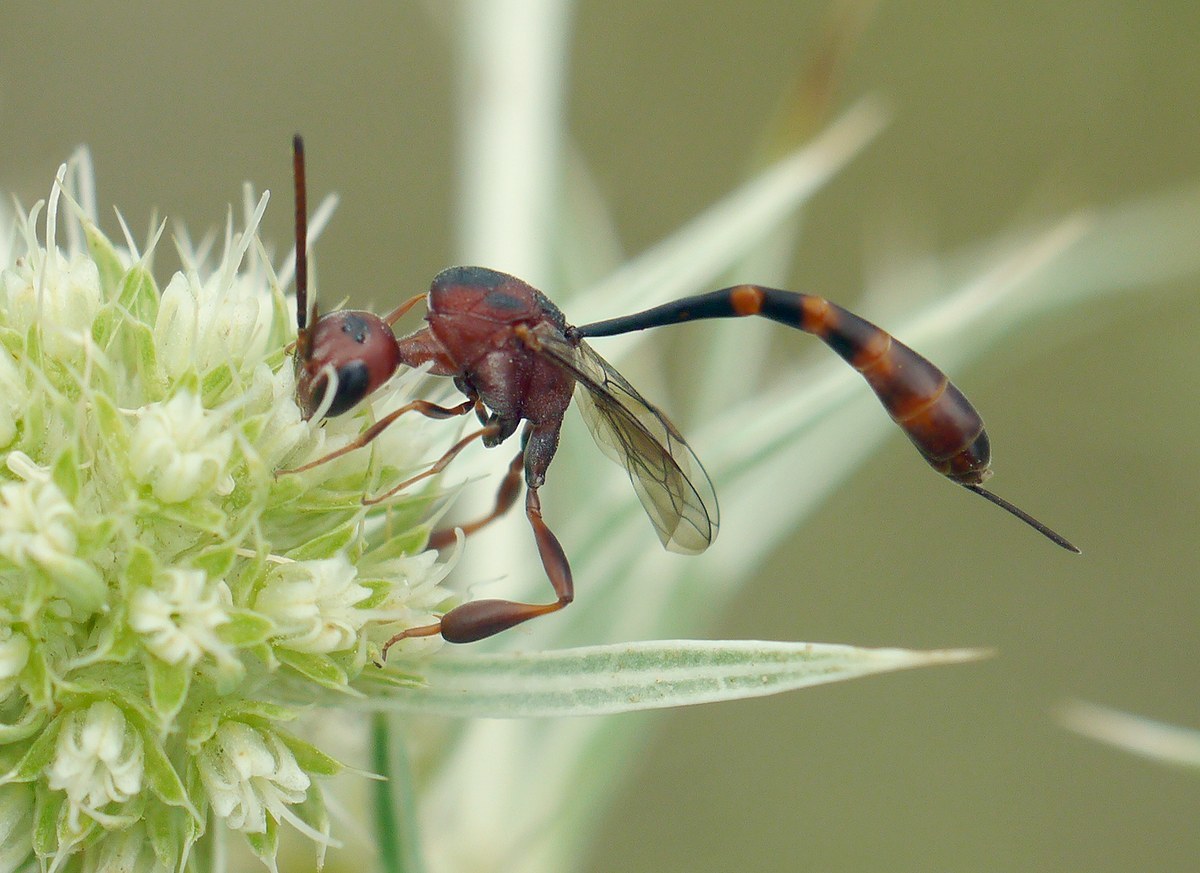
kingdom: Animalia
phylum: Arthropoda
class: Insecta
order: Hymenoptera
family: Gasteruptiidae
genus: Gasteruption
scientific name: Gasteruption hastator
